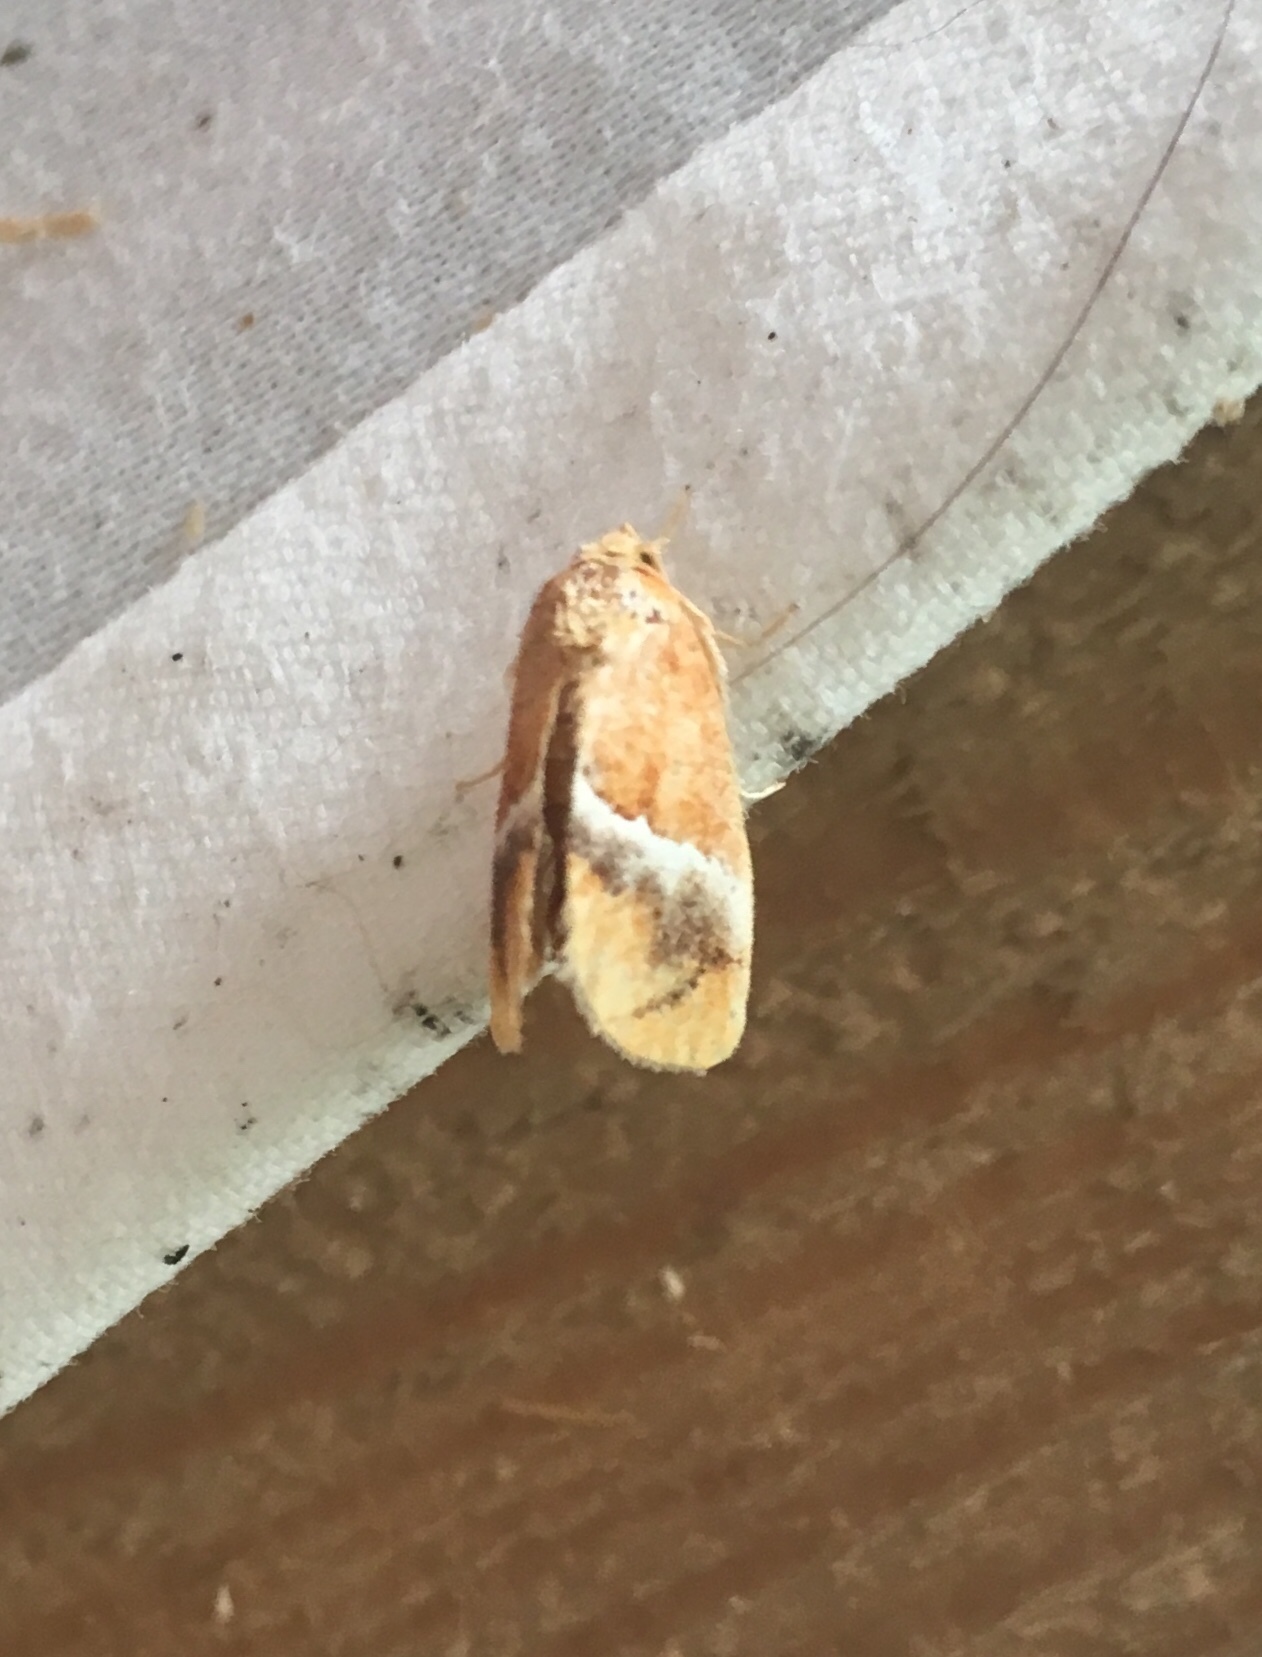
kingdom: Animalia
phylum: Arthropoda
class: Insecta
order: Lepidoptera
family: Limacodidae
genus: Lithacodes
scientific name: Lithacodes fasciola
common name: Yellow-shouldered slug moth
